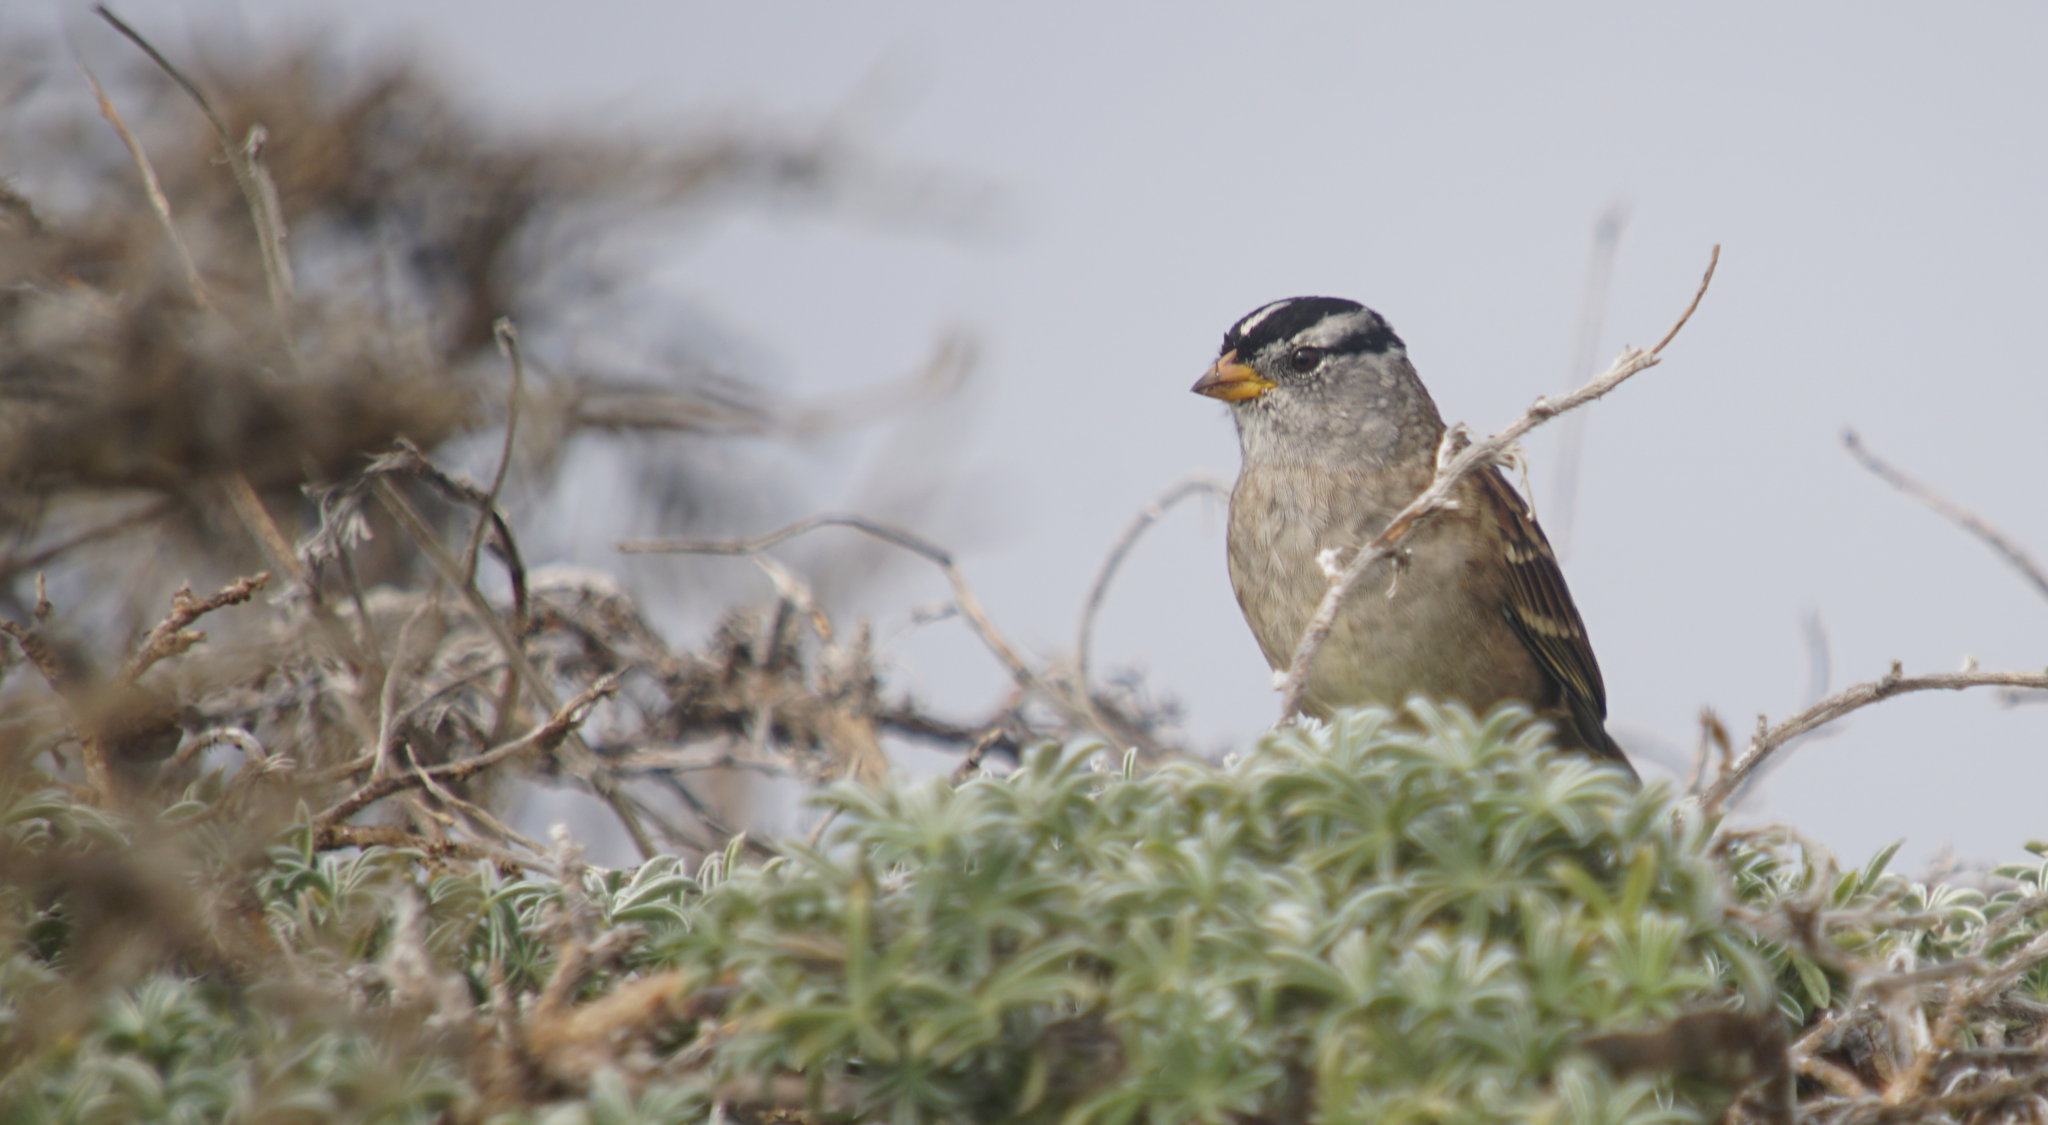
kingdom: Animalia
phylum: Chordata
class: Aves
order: Passeriformes
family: Passerellidae
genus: Zonotrichia
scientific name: Zonotrichia leucophrys
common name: White-crowned sparrow
